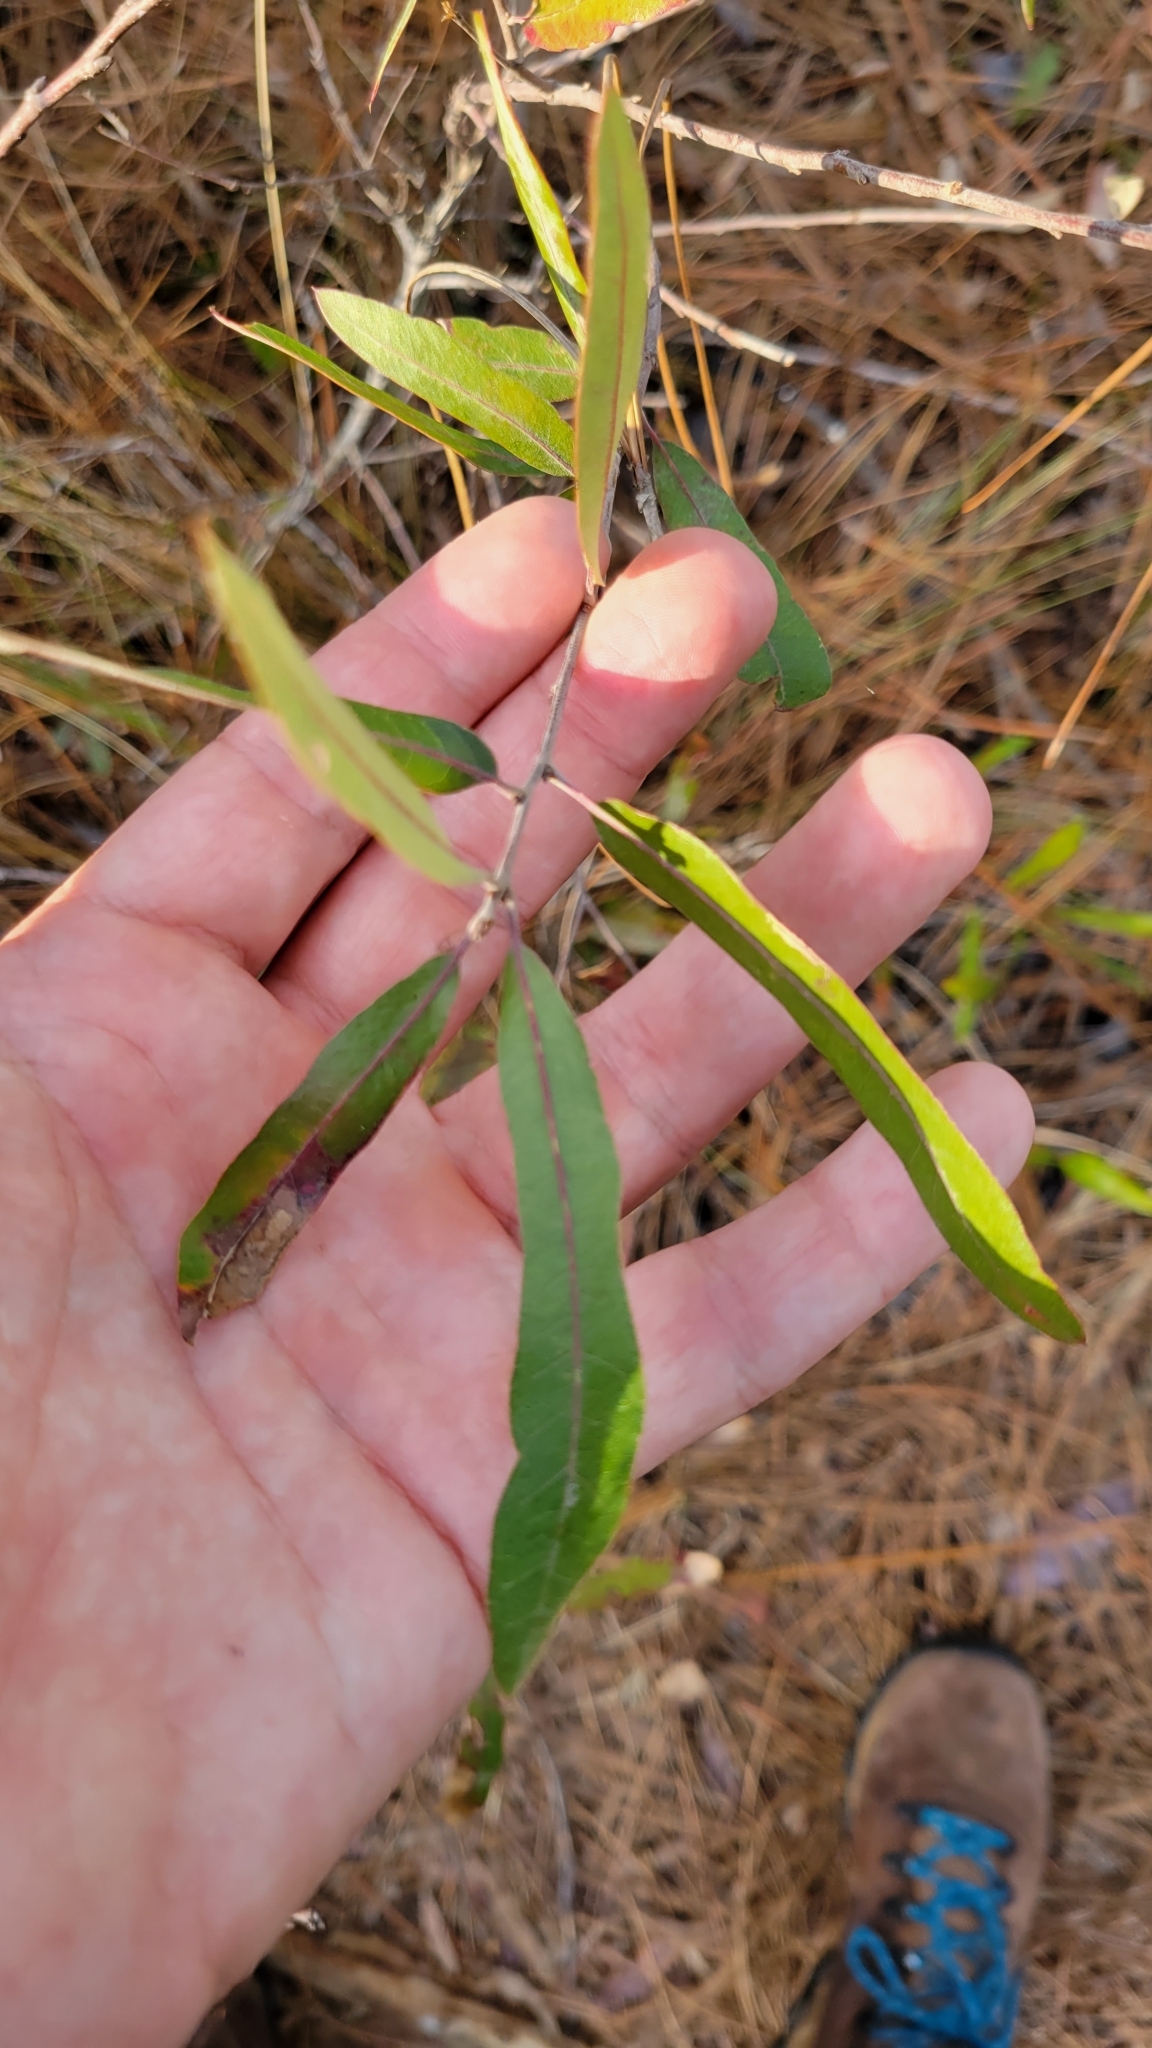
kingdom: Plantae
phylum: Tracheophyta
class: Magnoliopsida
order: Fagales
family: Fagaceae
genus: Quercus
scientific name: Quercus incana
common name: Bluejack oak
